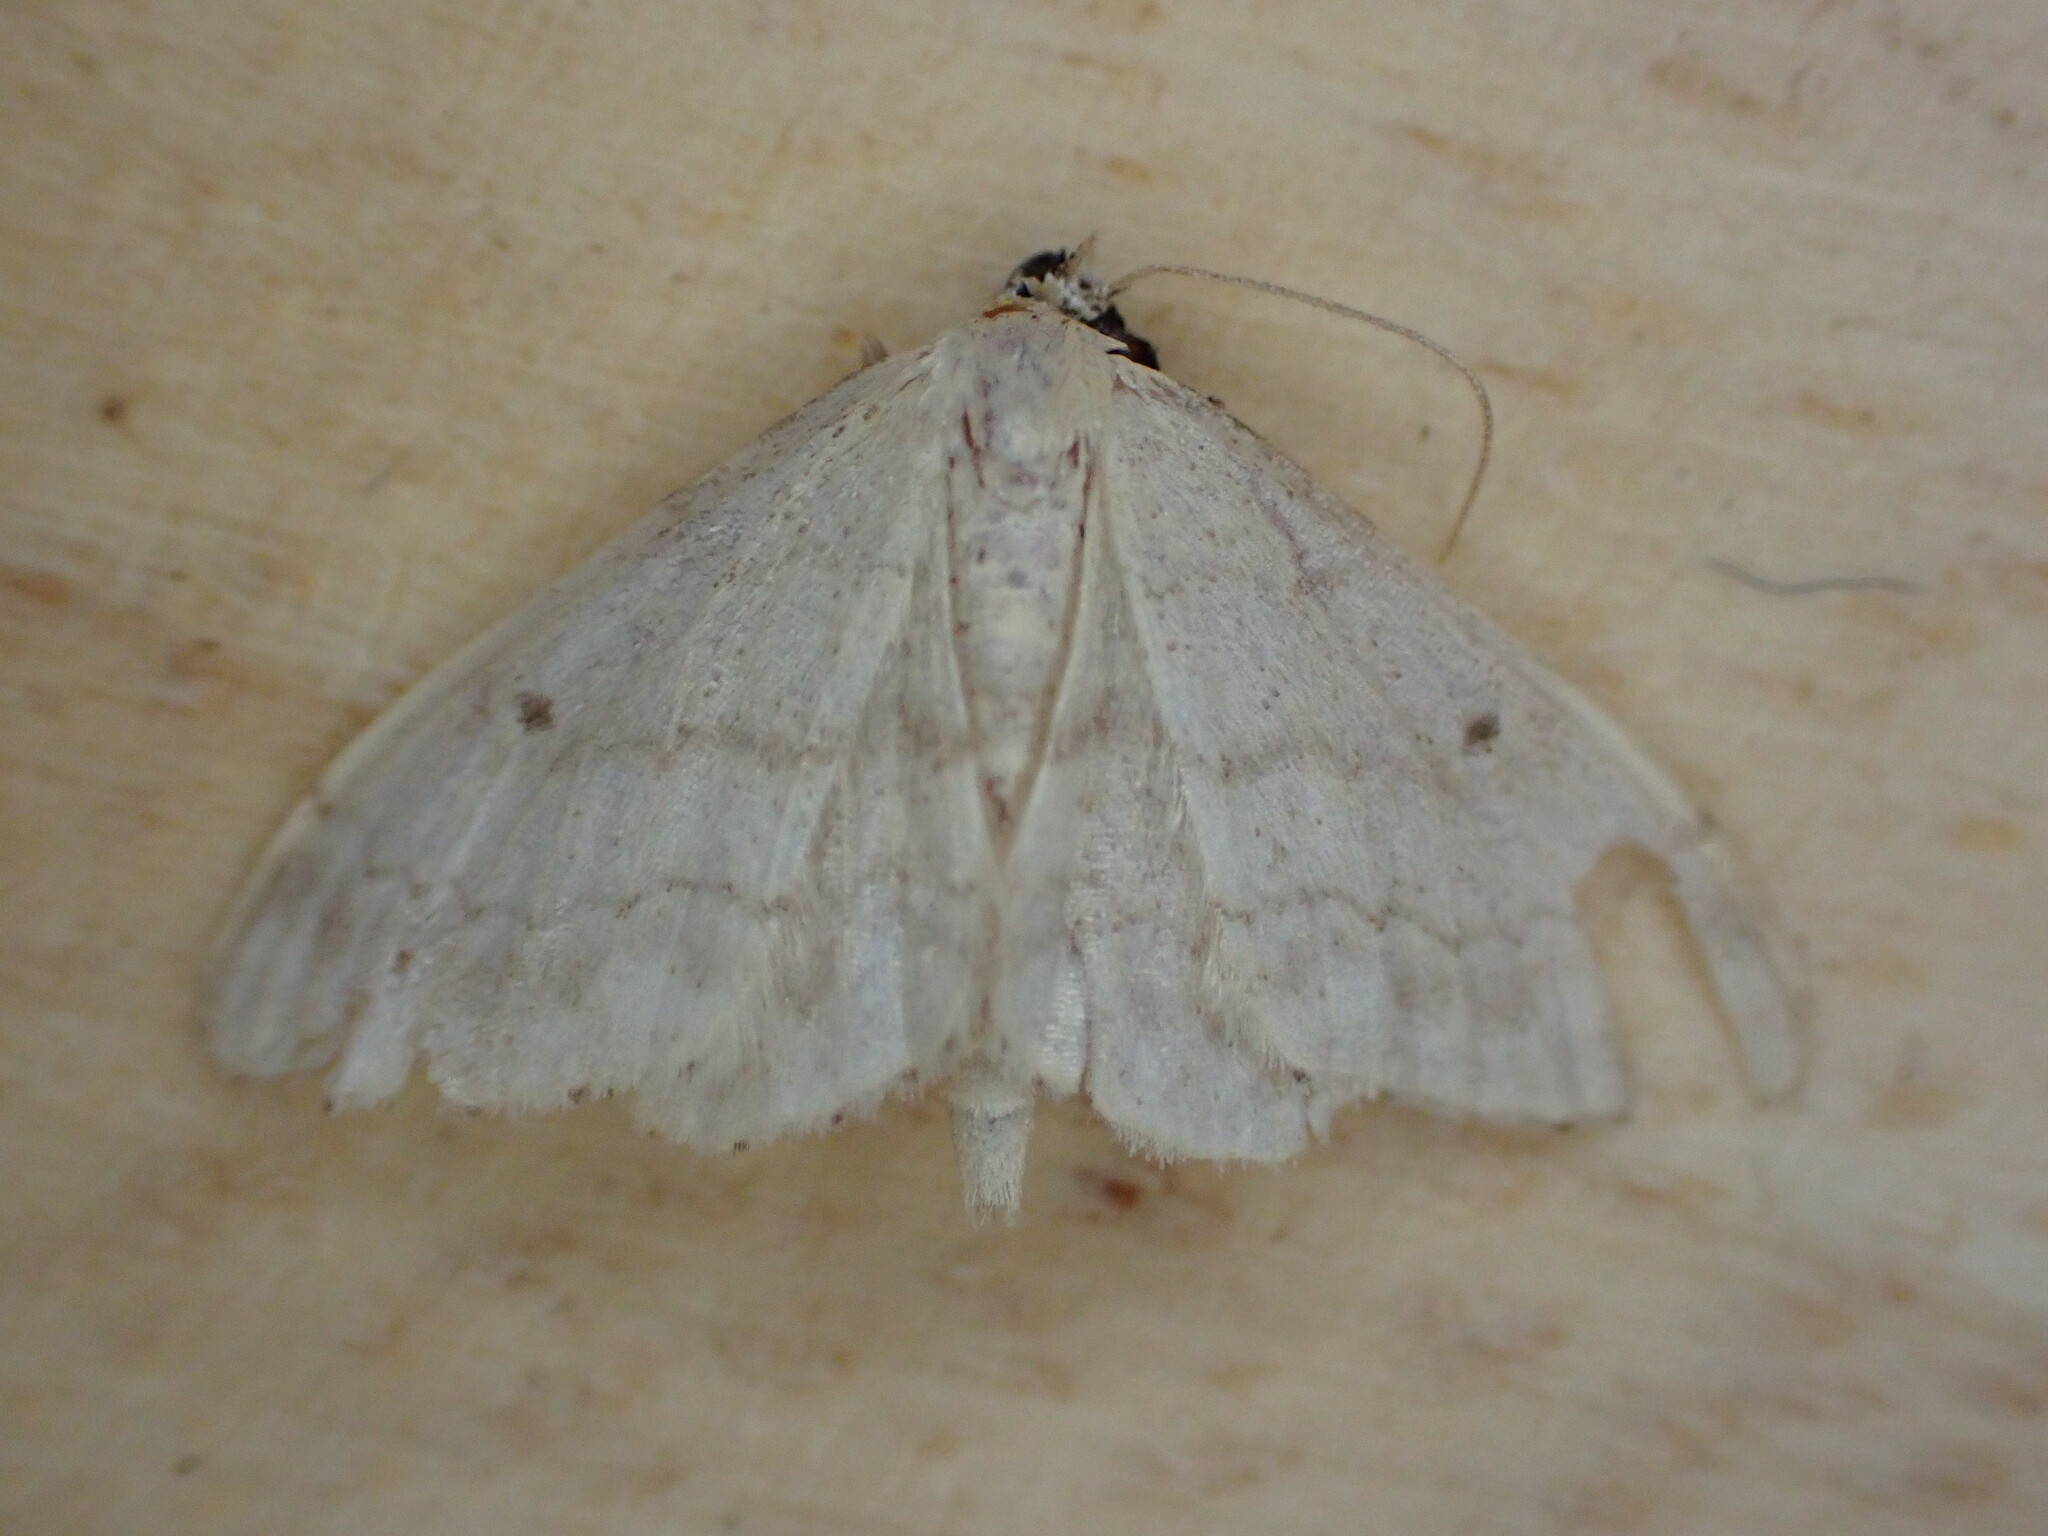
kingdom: Animalia
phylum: Arthropoda
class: Insecta
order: Lepidoptera
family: Geometridae
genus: Idaea
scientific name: Idaea biselata
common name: Small fan-footed wave
